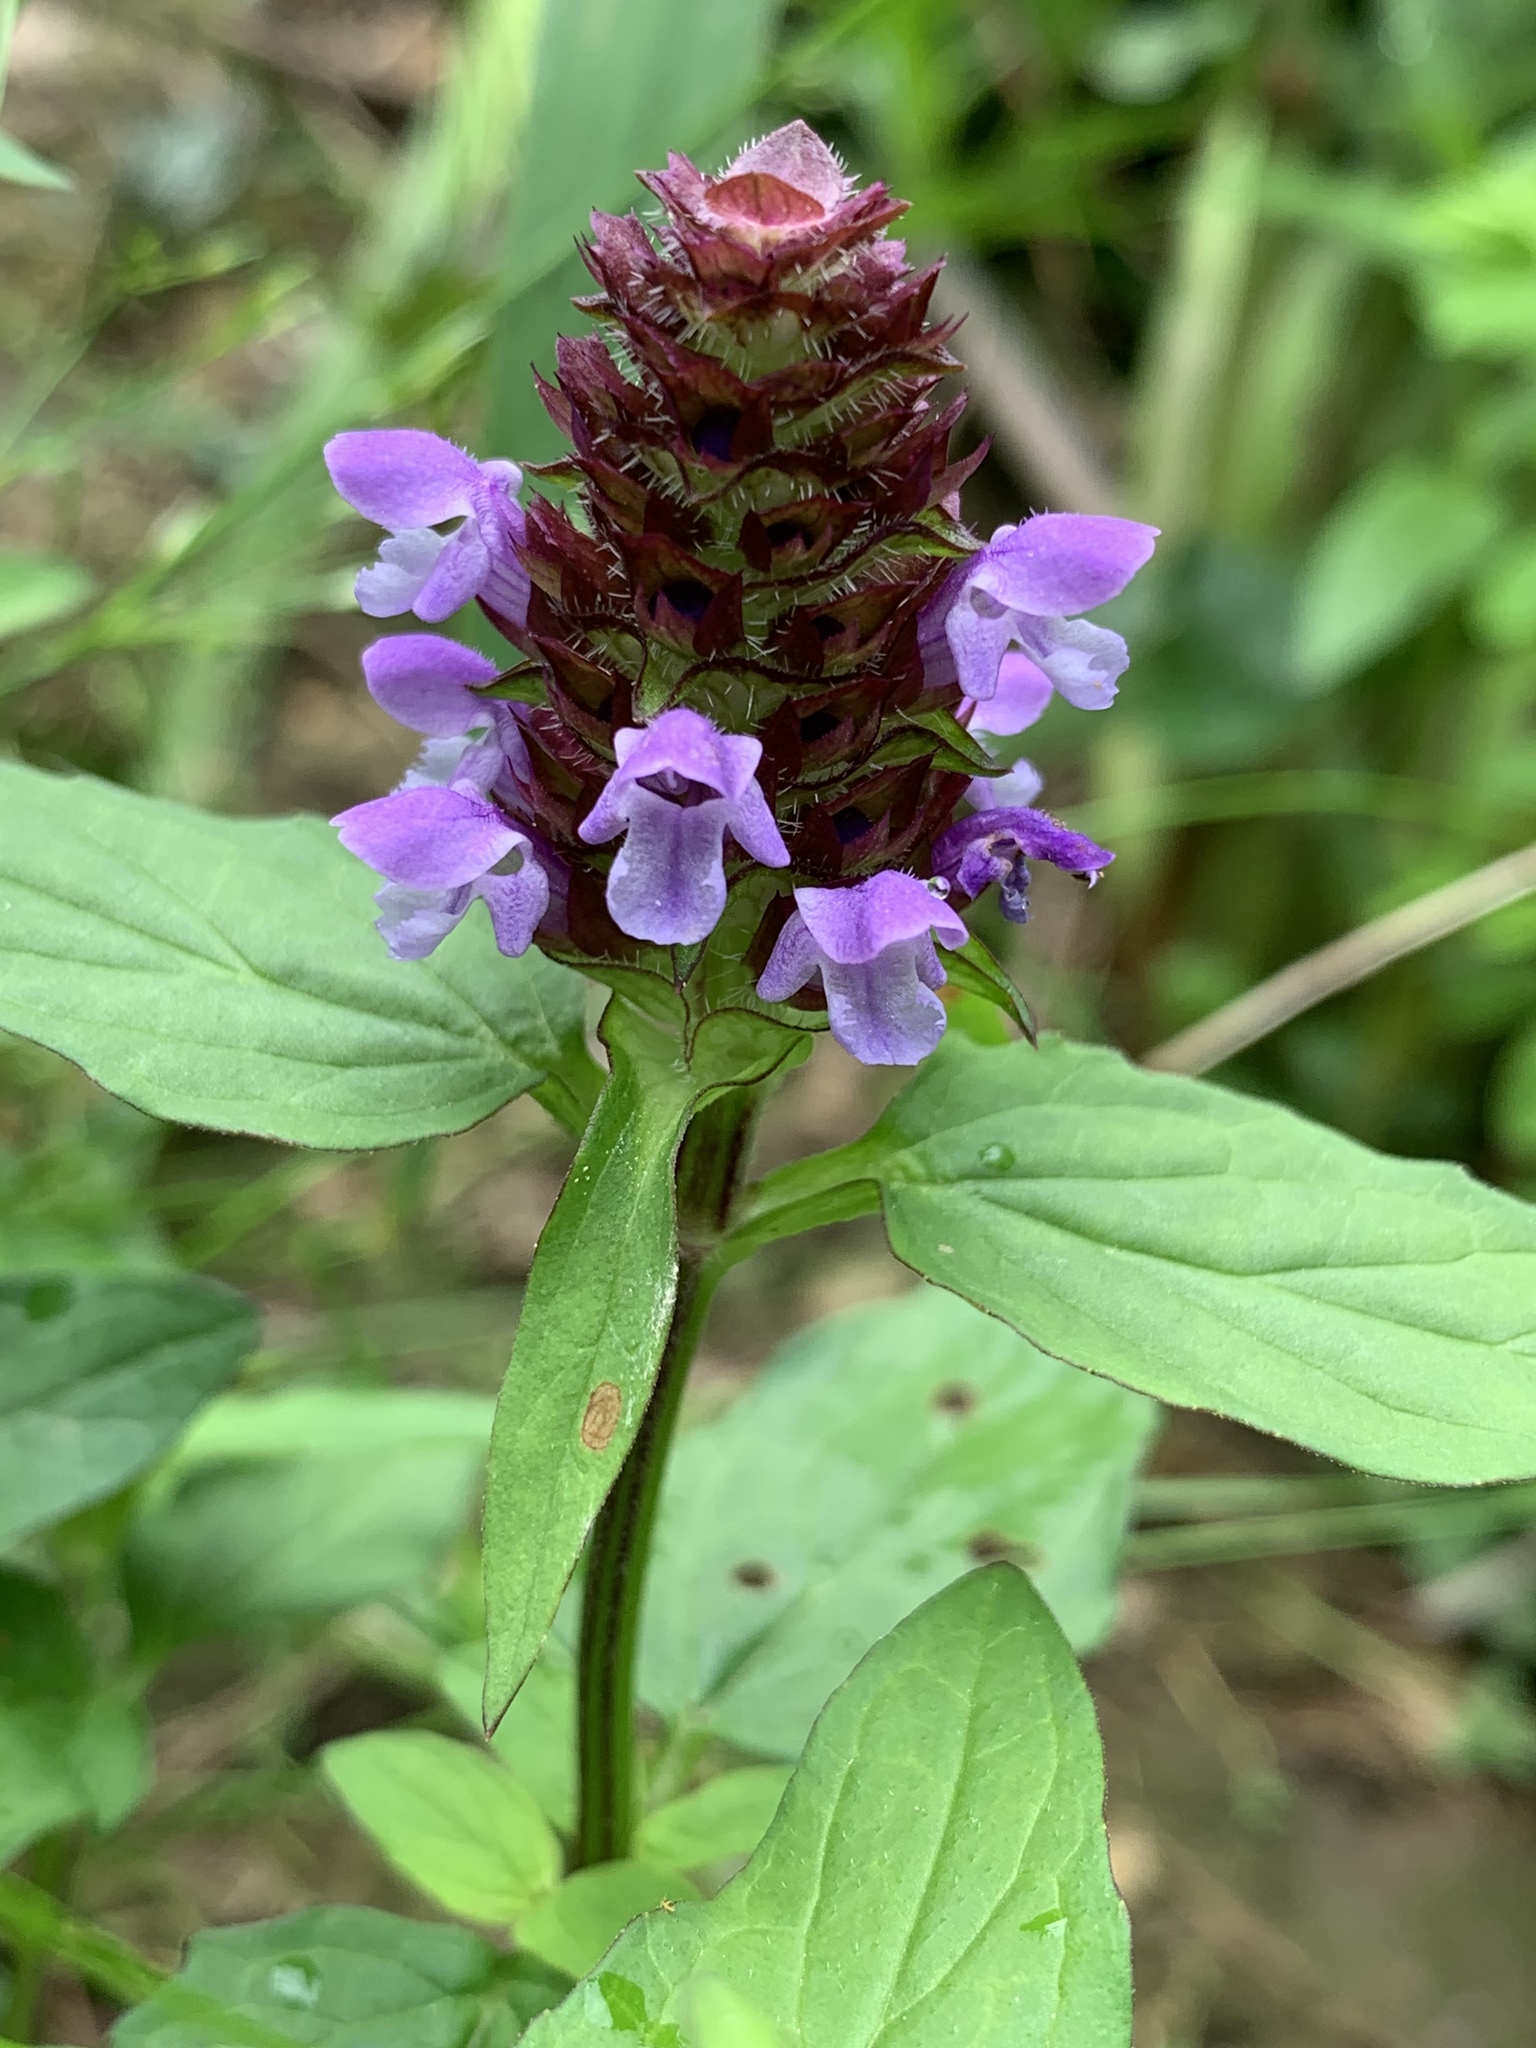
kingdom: Plantae
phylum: Tracheophyta
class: Magnoliopsida
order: Lamiales
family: Lamiaceae
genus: Prunella
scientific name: Prunella vulgaris
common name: Heal-all
